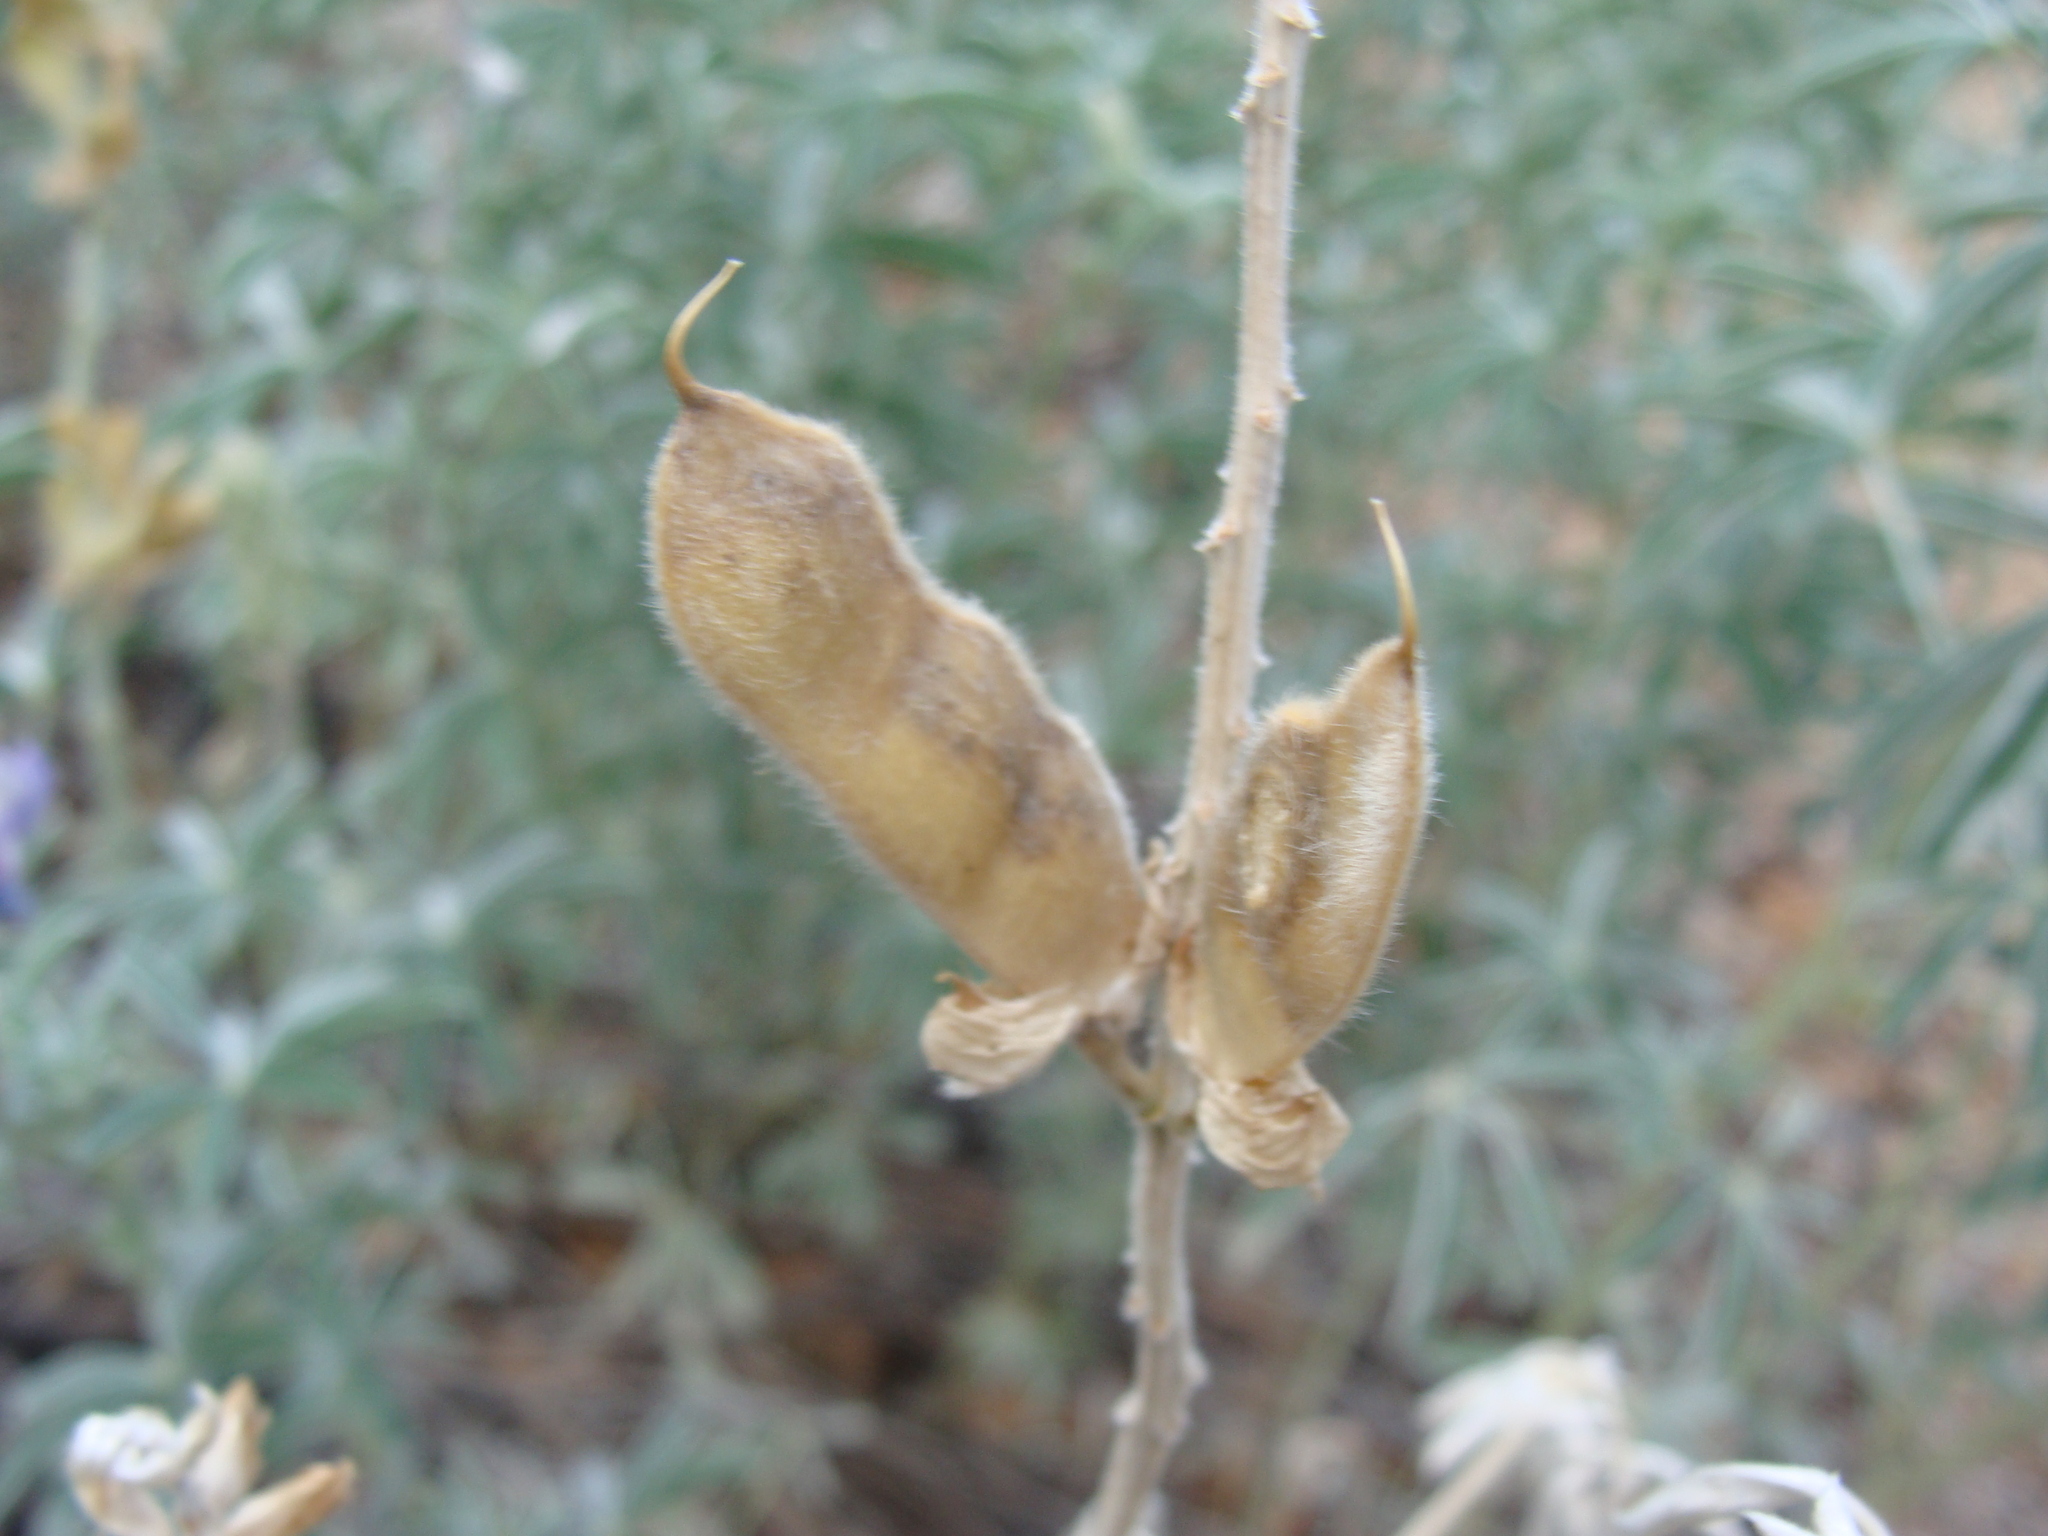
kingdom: Plantae
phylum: Tracheophyta
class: Magnoliopsida
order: Fabales
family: Fabaceae
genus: Lupinus
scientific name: Lupinus arizonicus
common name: Arizona lupine
